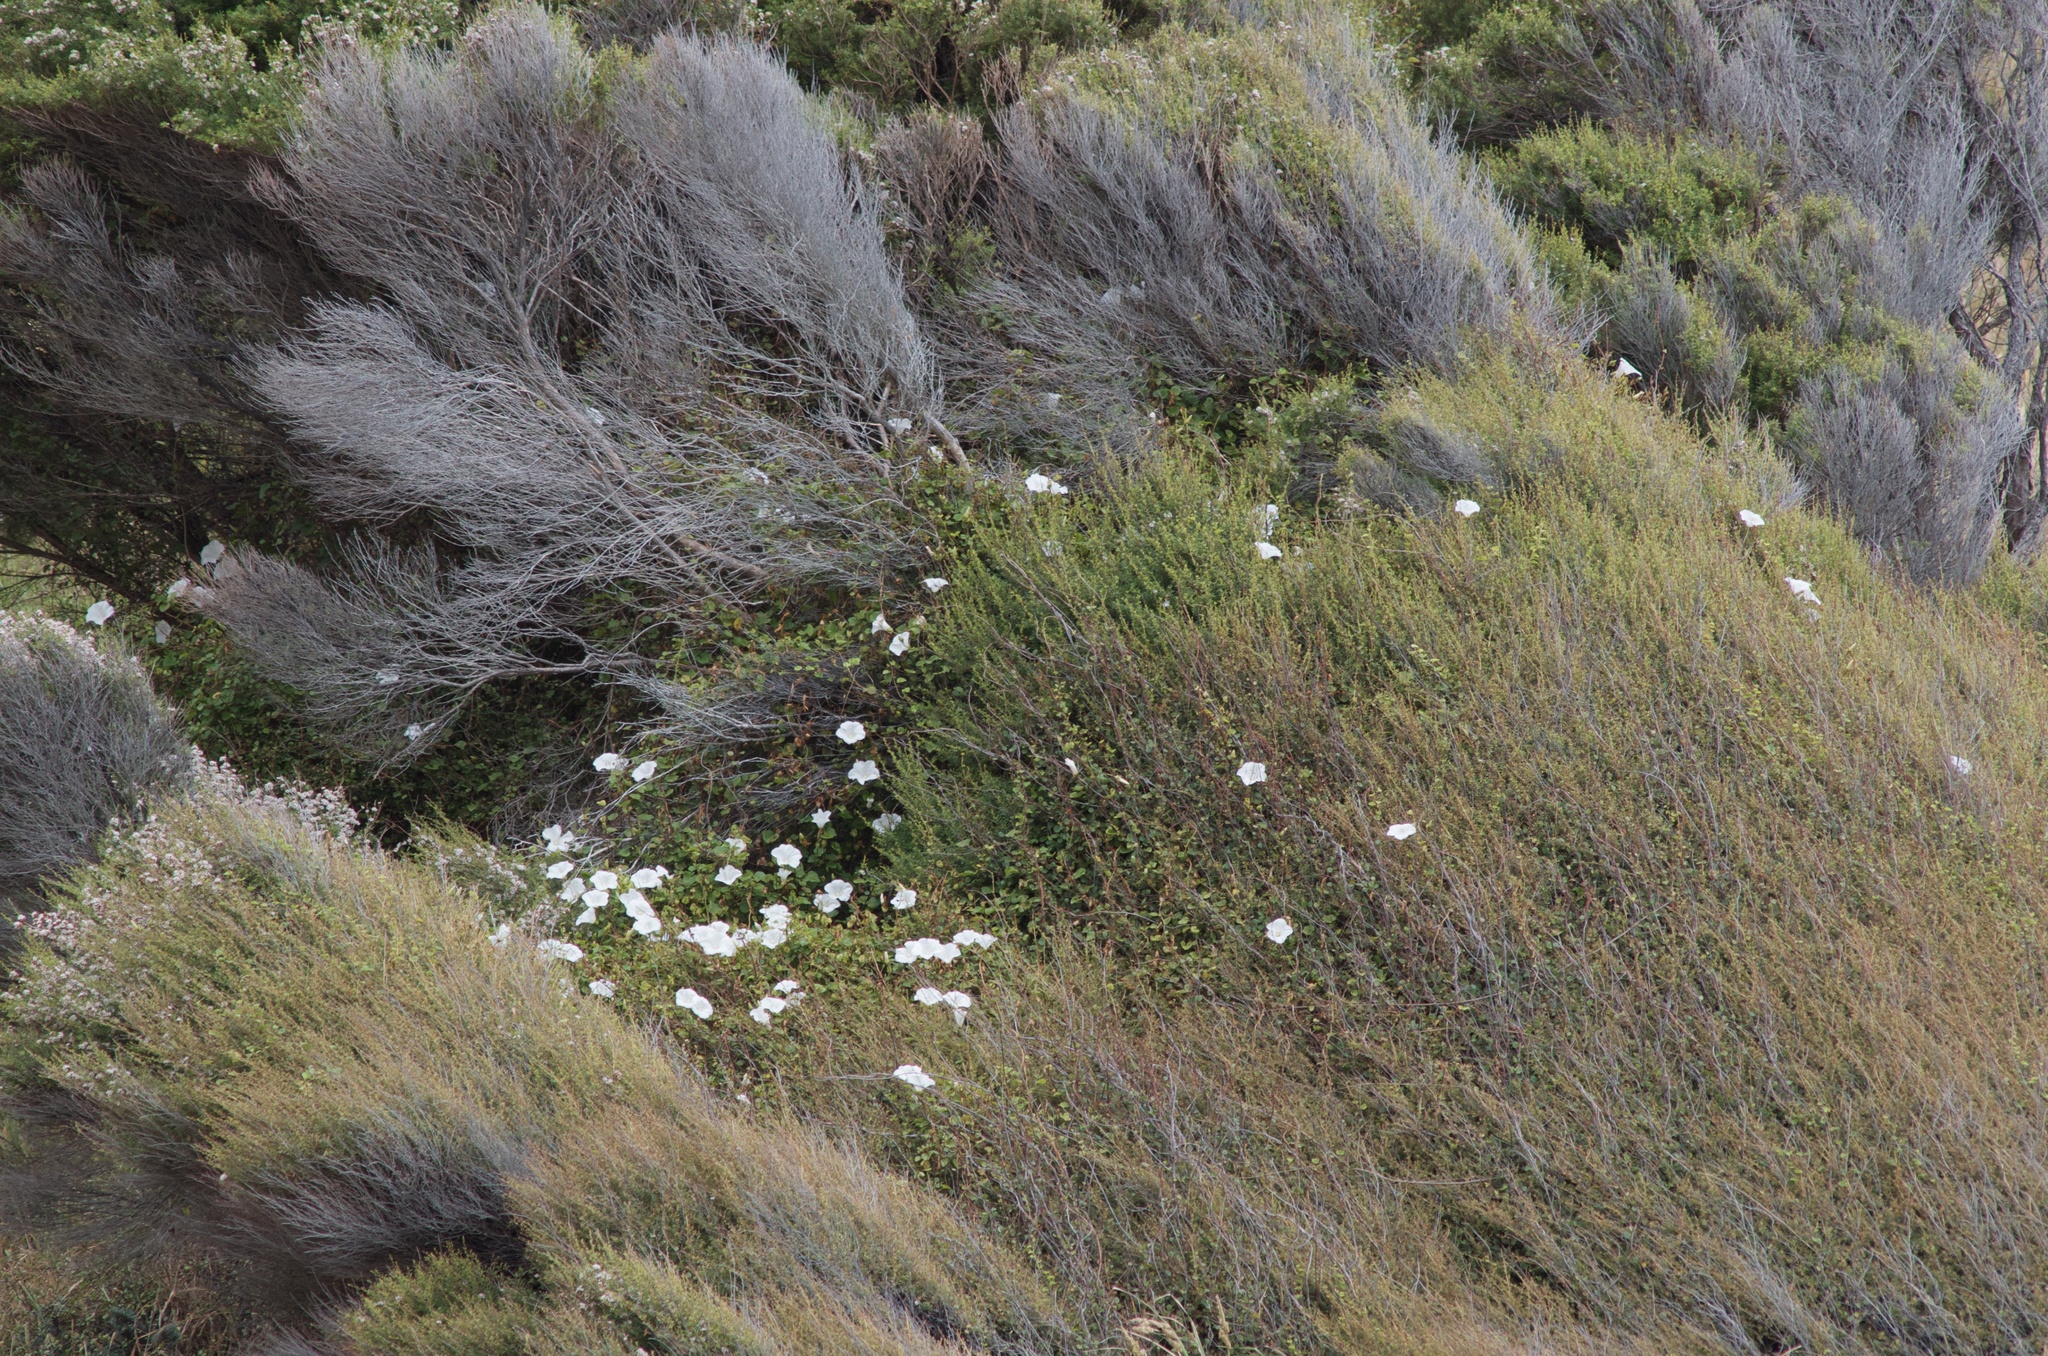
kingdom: Plantae
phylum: Tracheophyta
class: Magnoliopsida
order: Solanales
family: Convolvulaceae
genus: Calystegia
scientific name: Calystegia tuguriorum
